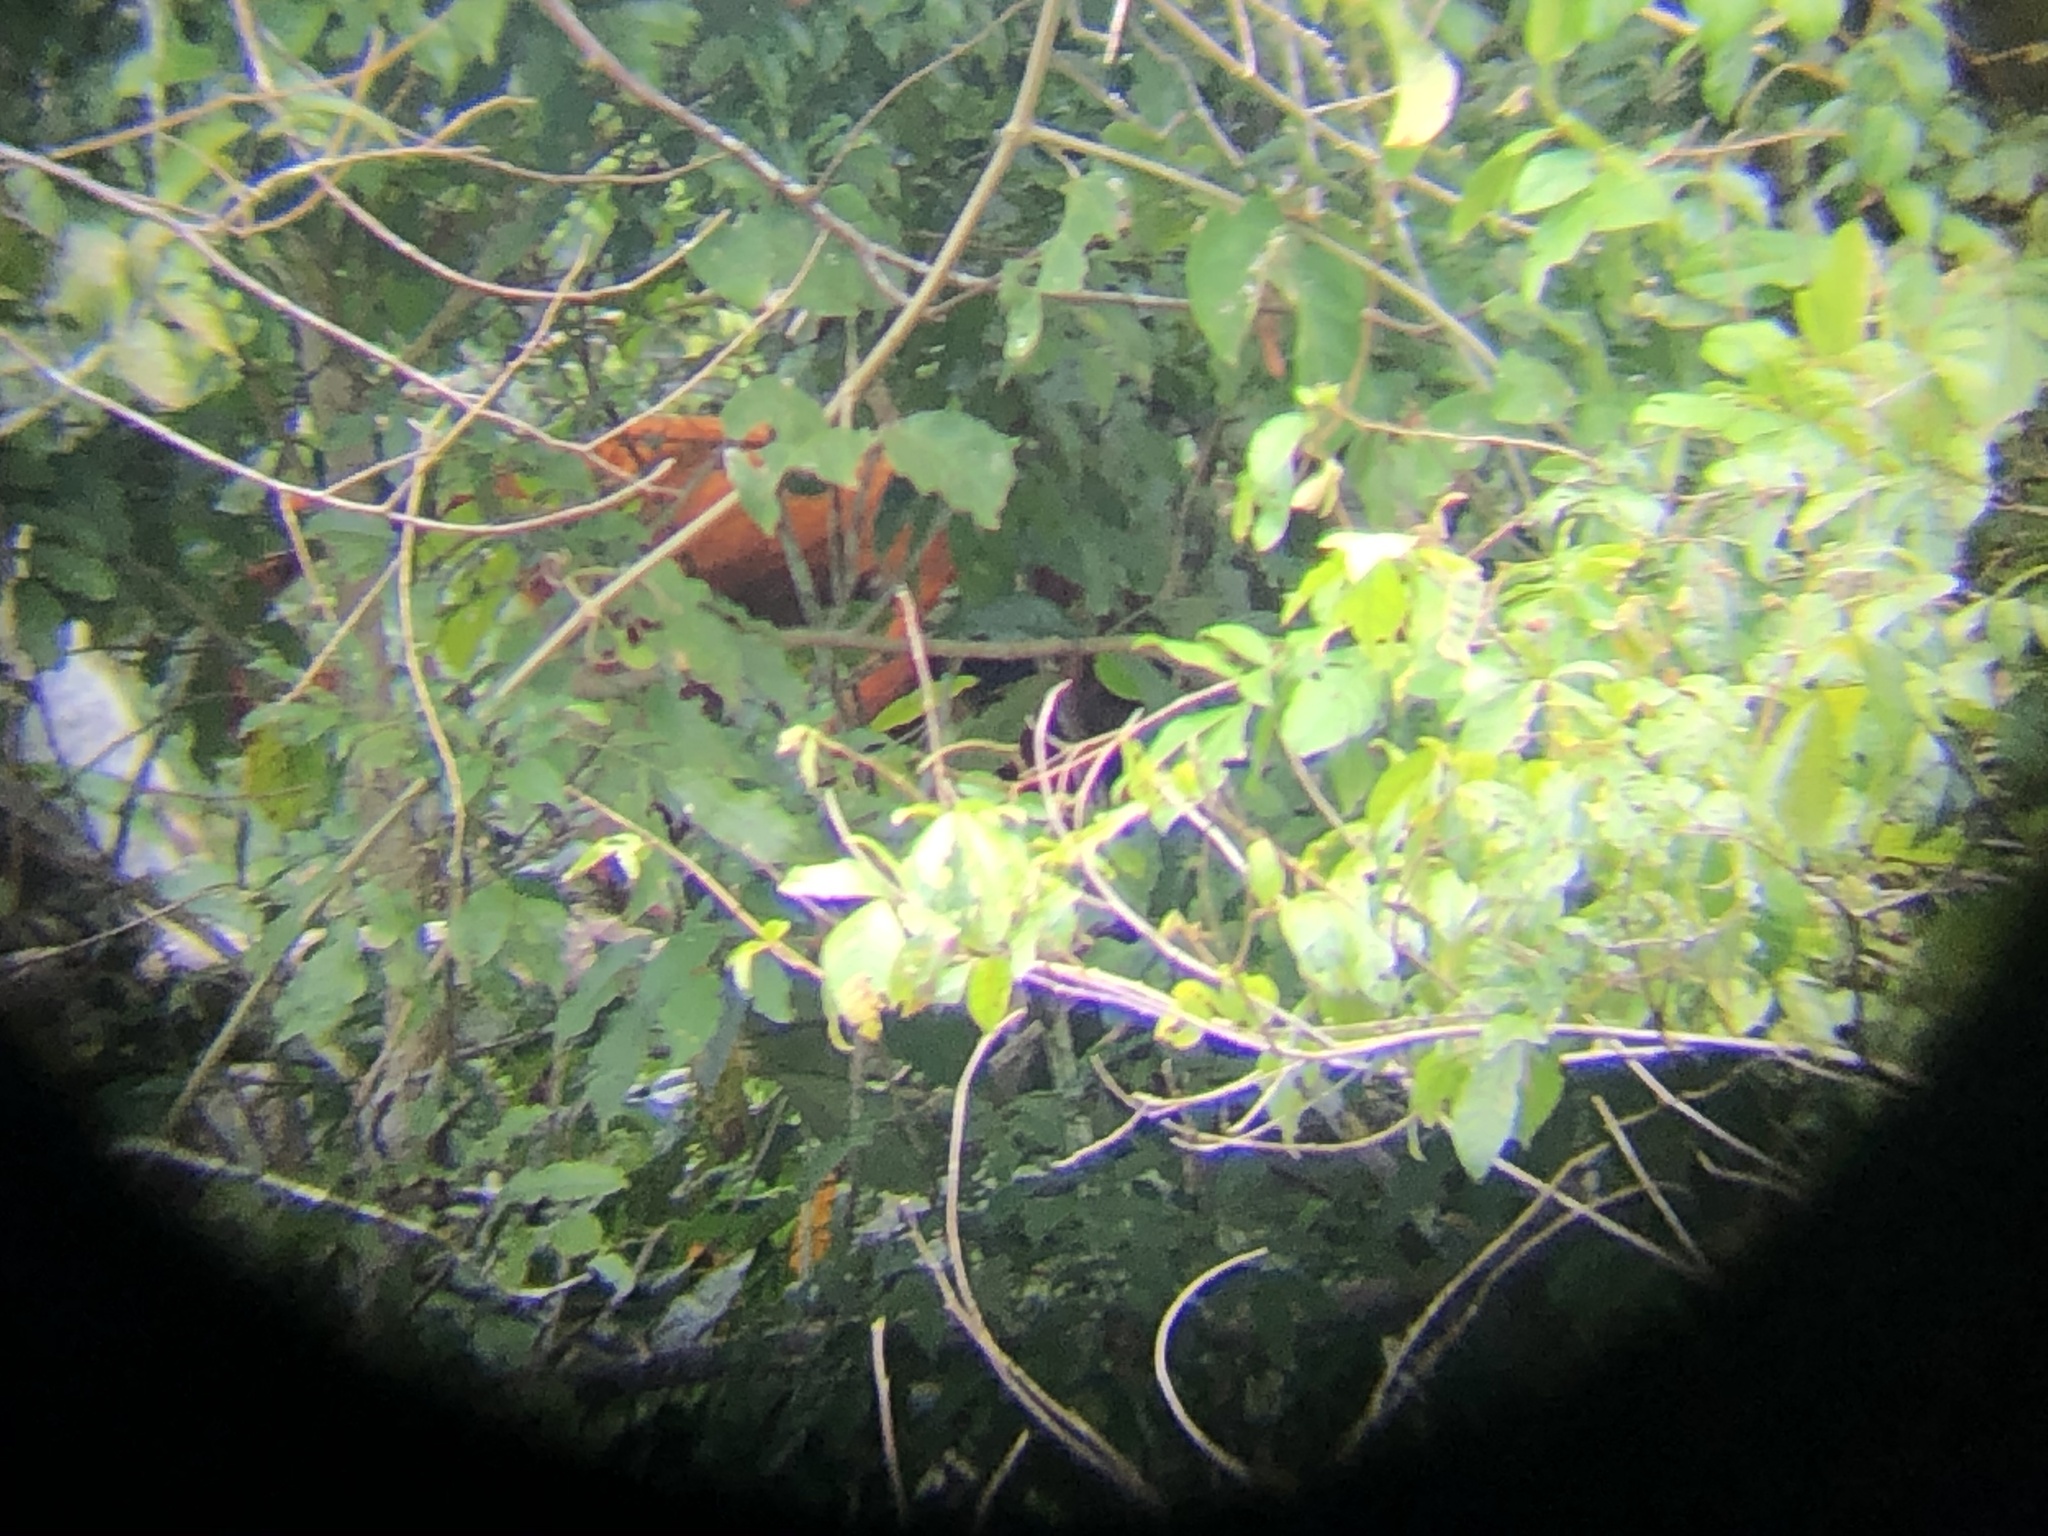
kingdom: Animalia
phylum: Chordata
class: Mammalia
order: Primates
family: Atelidae
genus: Alouatta
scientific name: Alouatta seniculus
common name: Venezuelan red howler
